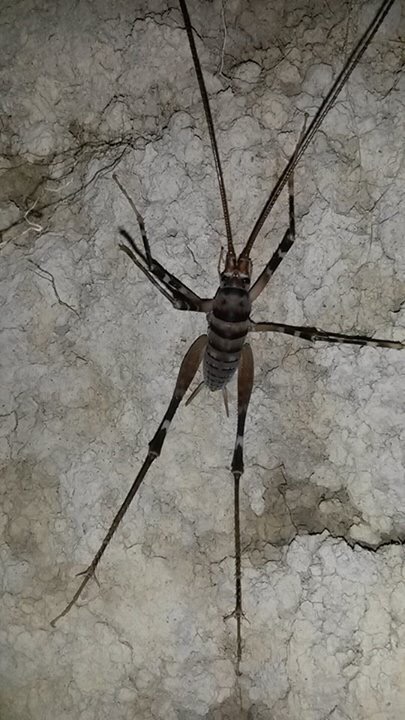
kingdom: Animalia
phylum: Arthropoda
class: Insecta
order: Orthoptera
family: Rhaphidophoridae
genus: Pachyrhamma
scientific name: Pachyrhamma edwardsii
